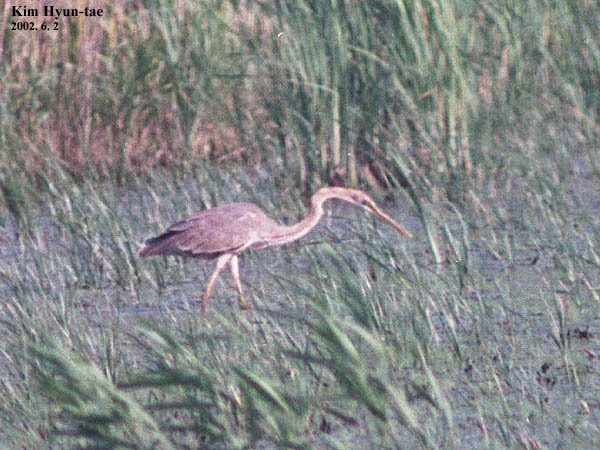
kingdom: Animalia
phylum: Chordata
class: Aves
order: Pelecaniformes
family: Ardeidae
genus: Ardea
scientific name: Ardea purpurea
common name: Purple heron
